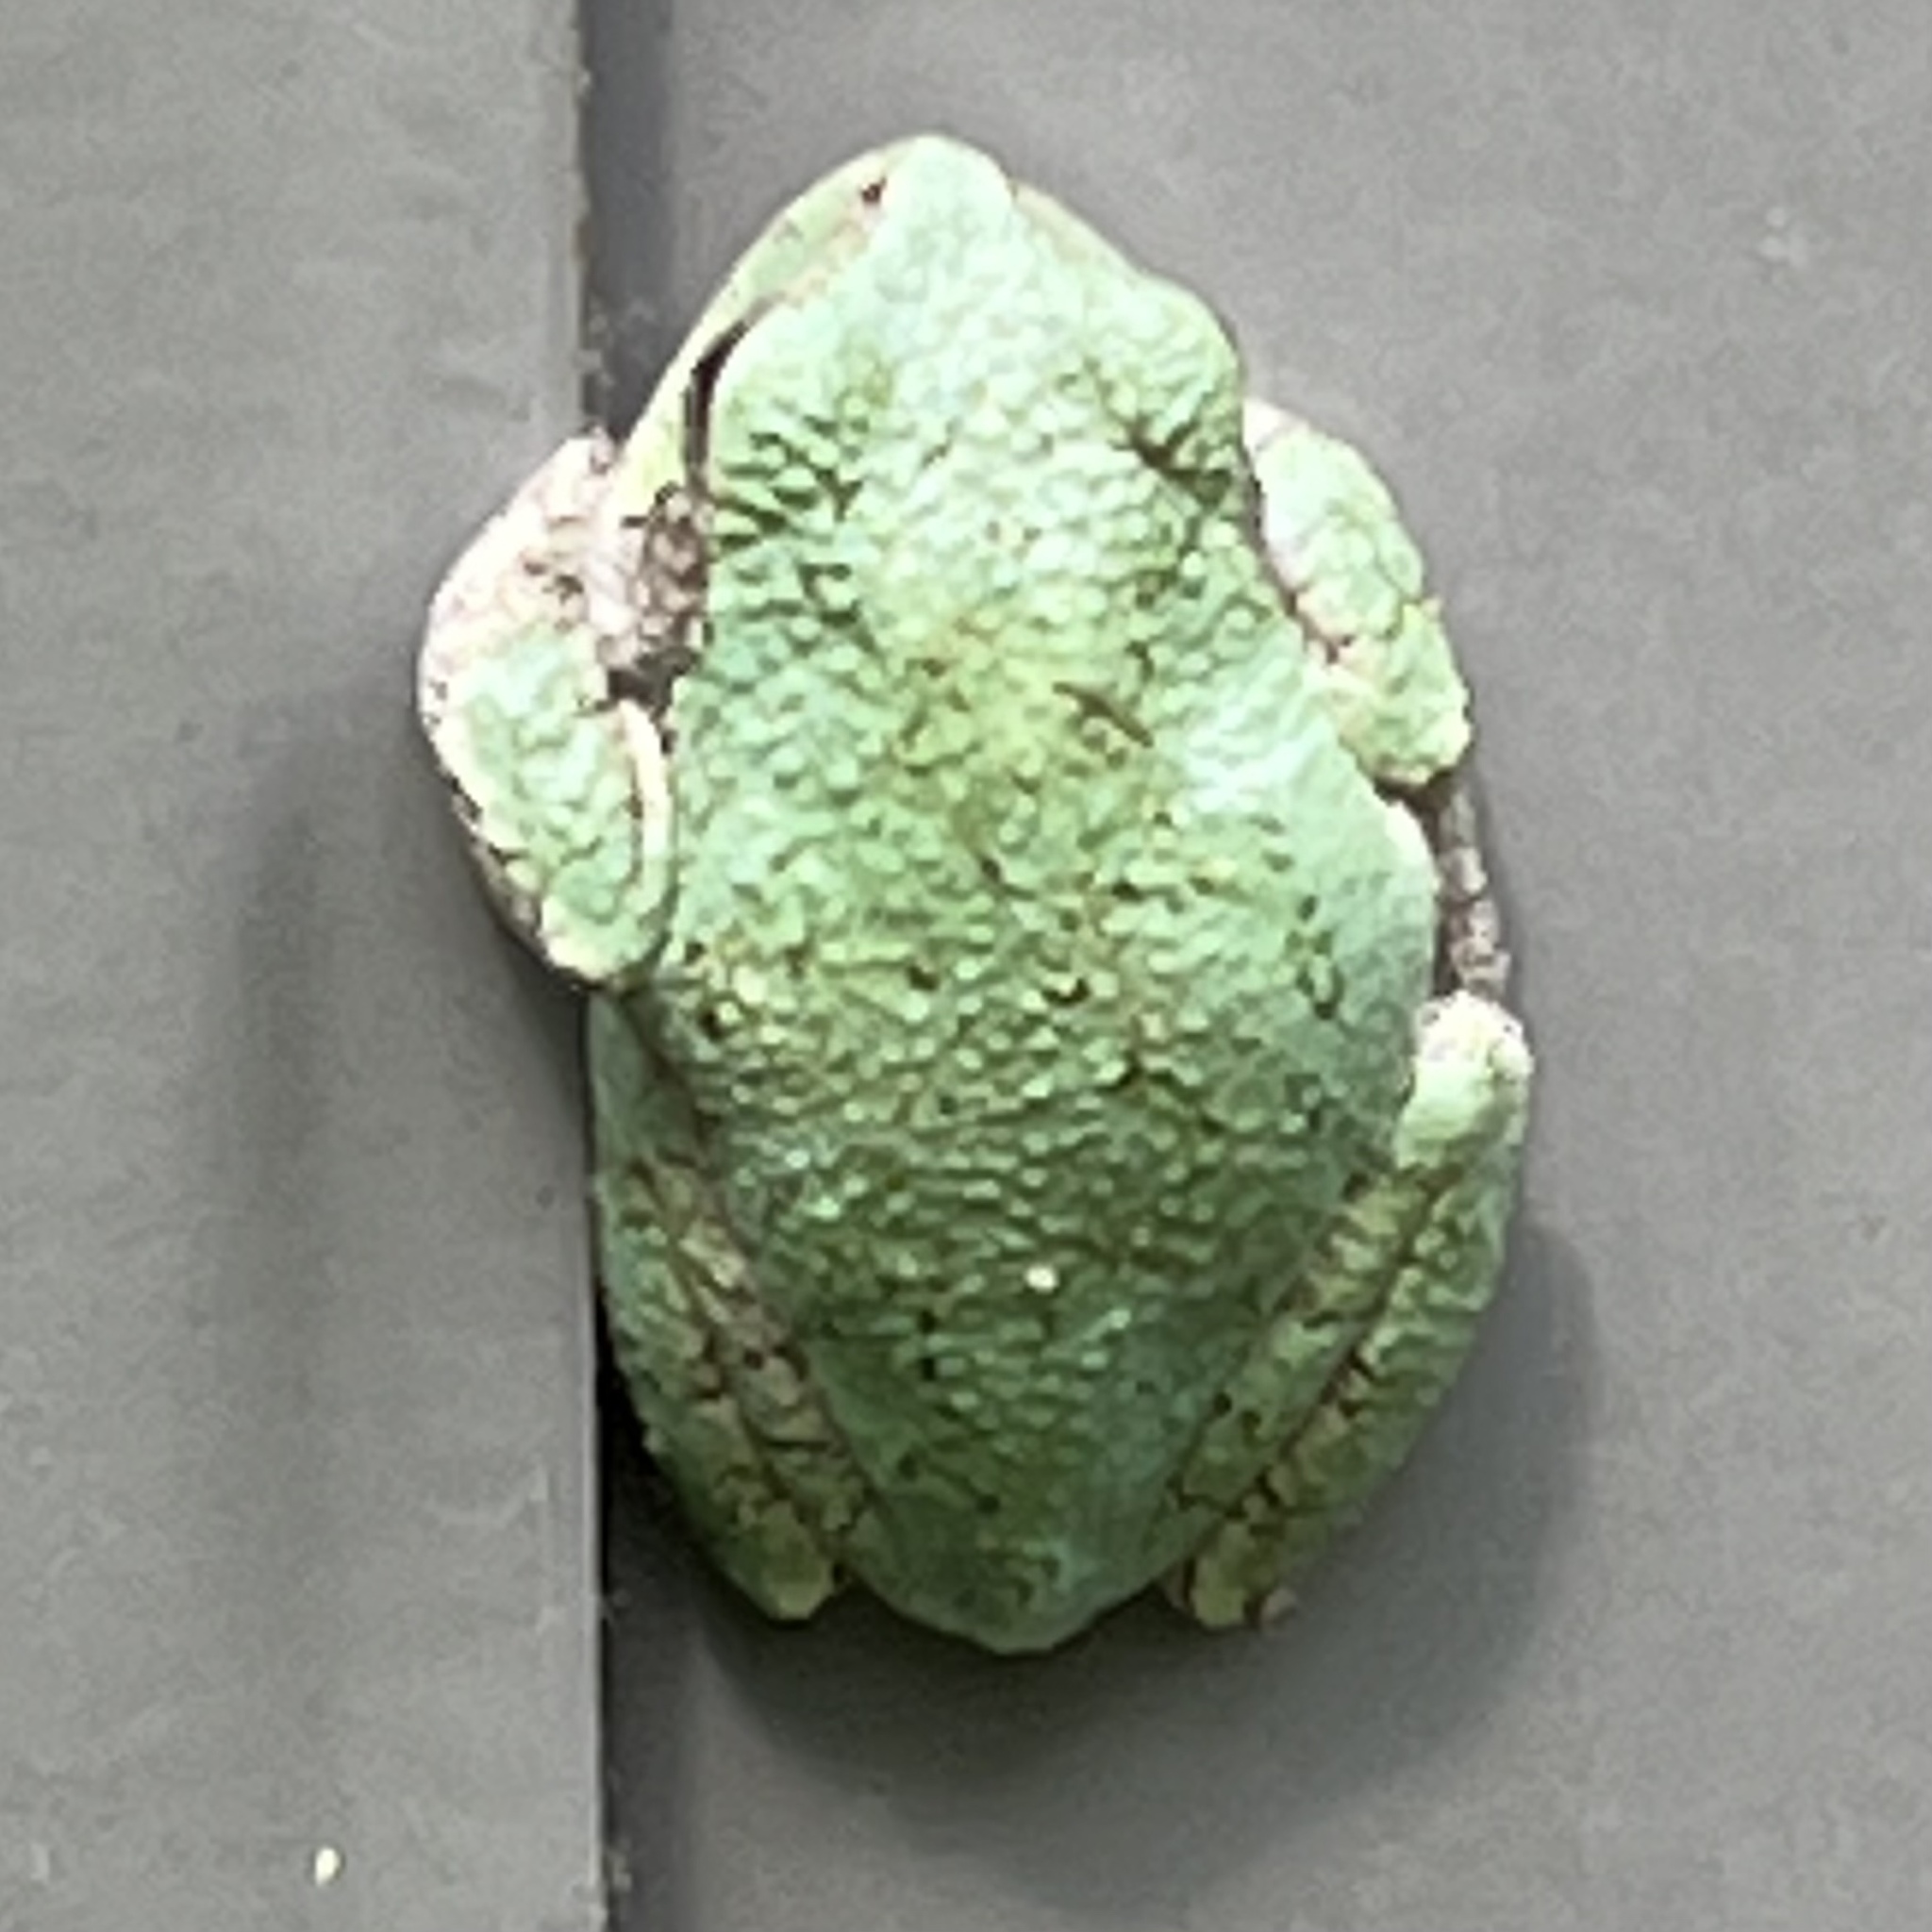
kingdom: Animalia
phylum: Chordata
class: Amphibia
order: Anura
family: Hylidae
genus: Hyla
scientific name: Hyla
